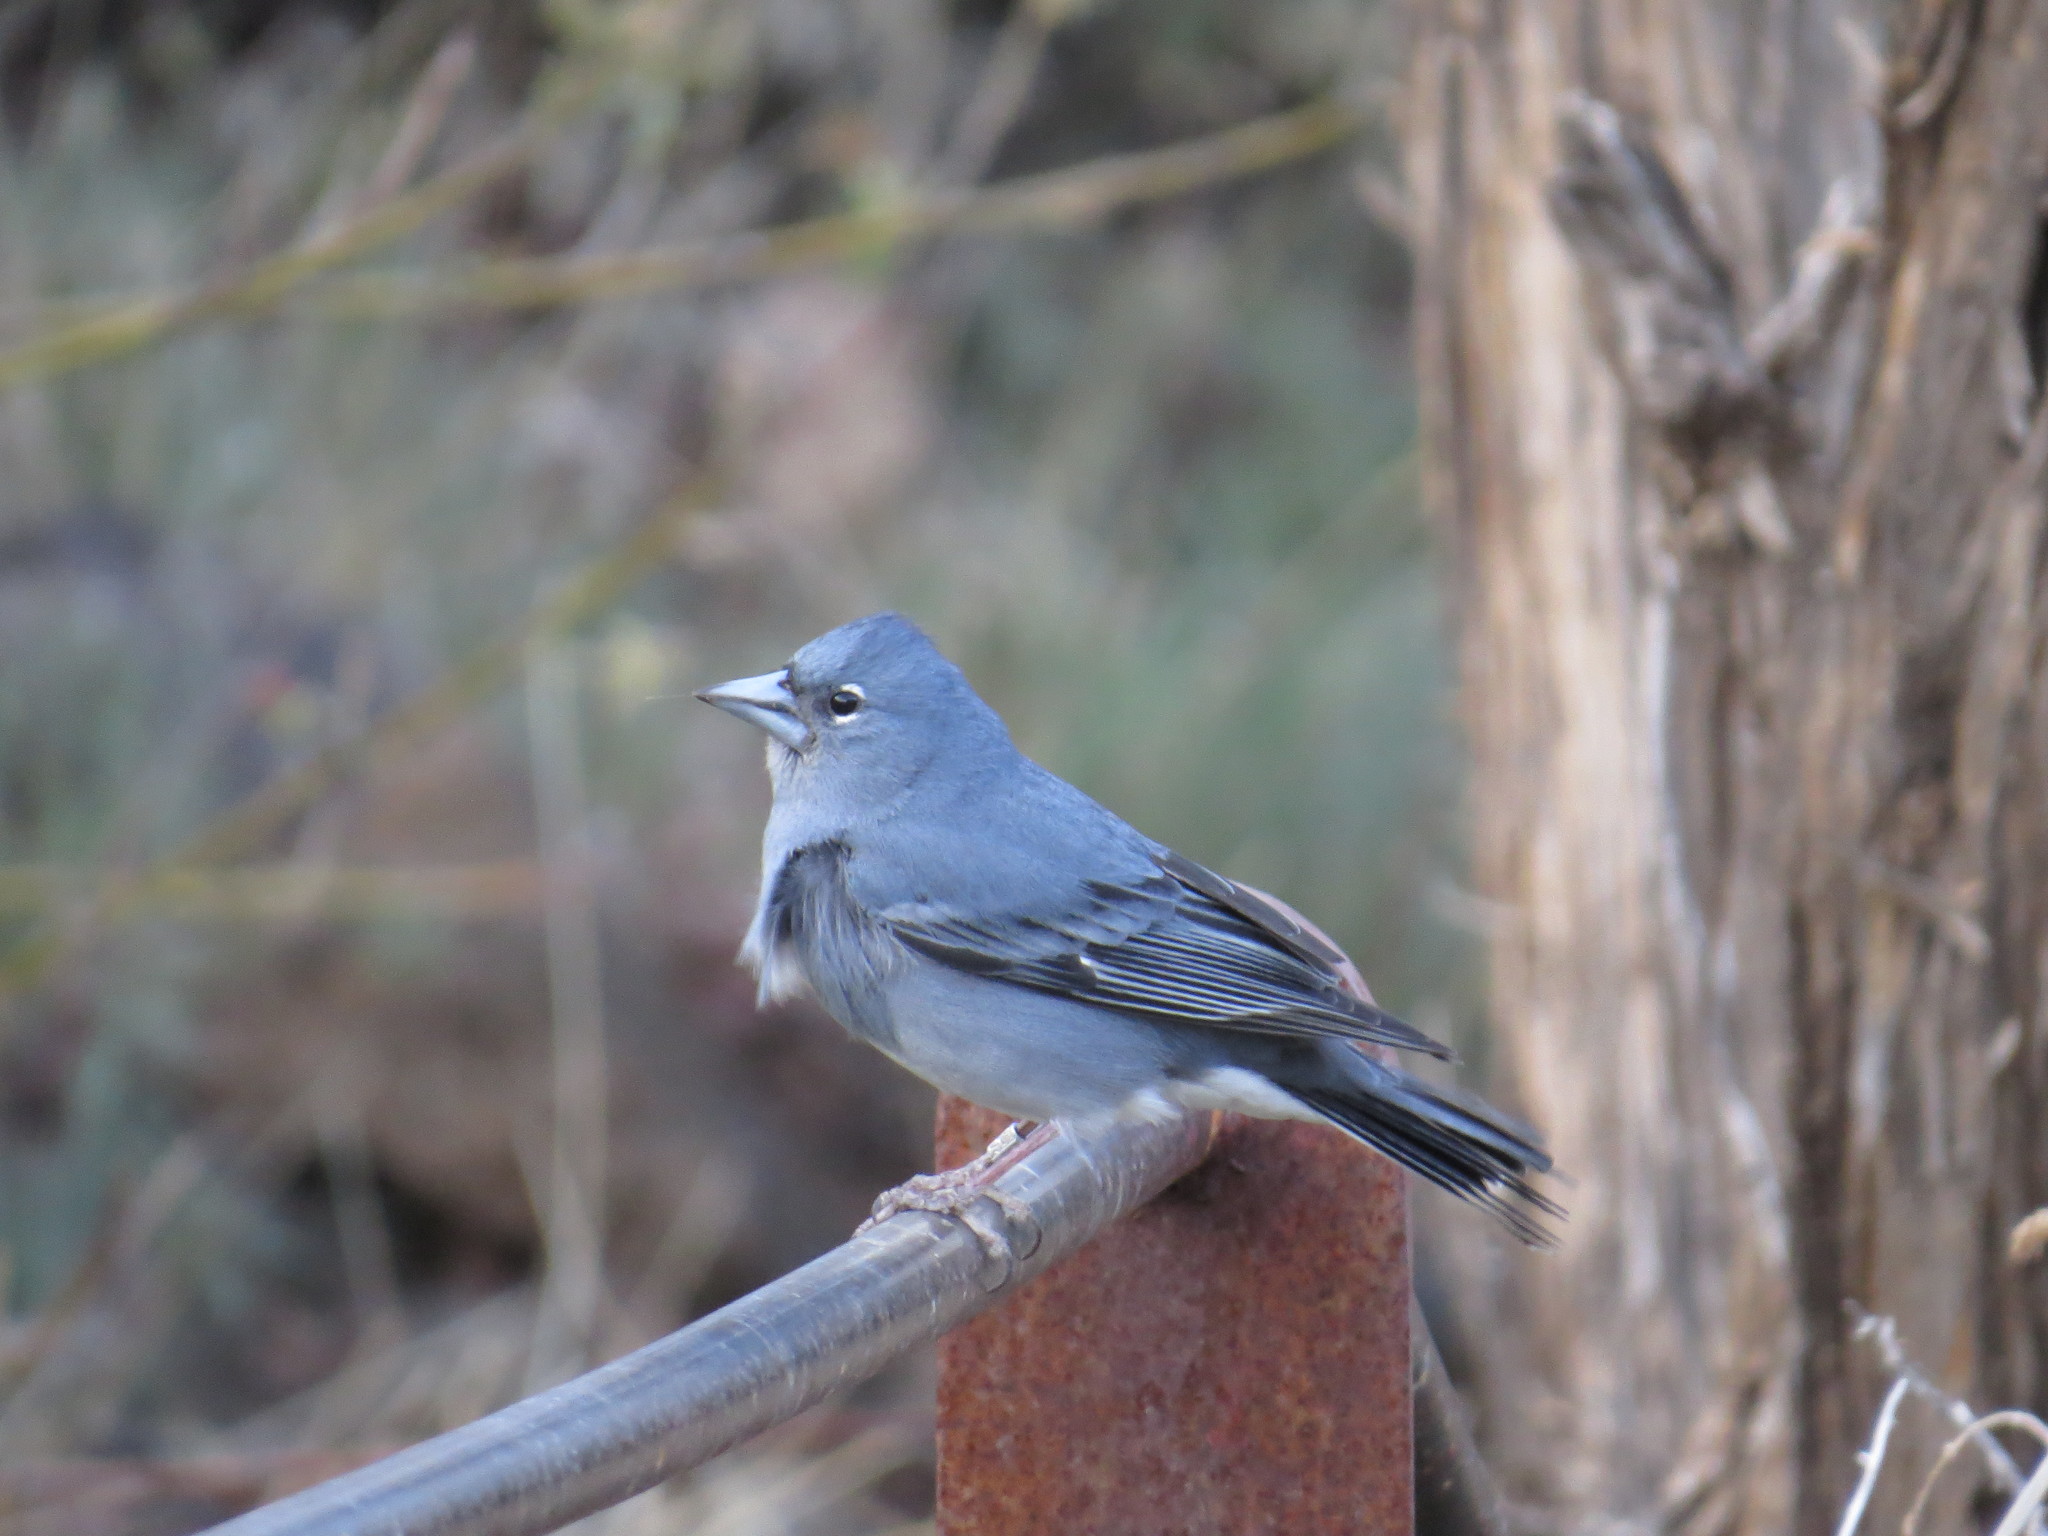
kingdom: Animalia
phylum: Chordata
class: Aves
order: Passeriformes
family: Fringillidae
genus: Fringilla
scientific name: Fringilla teydea
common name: Blue chaffinch
